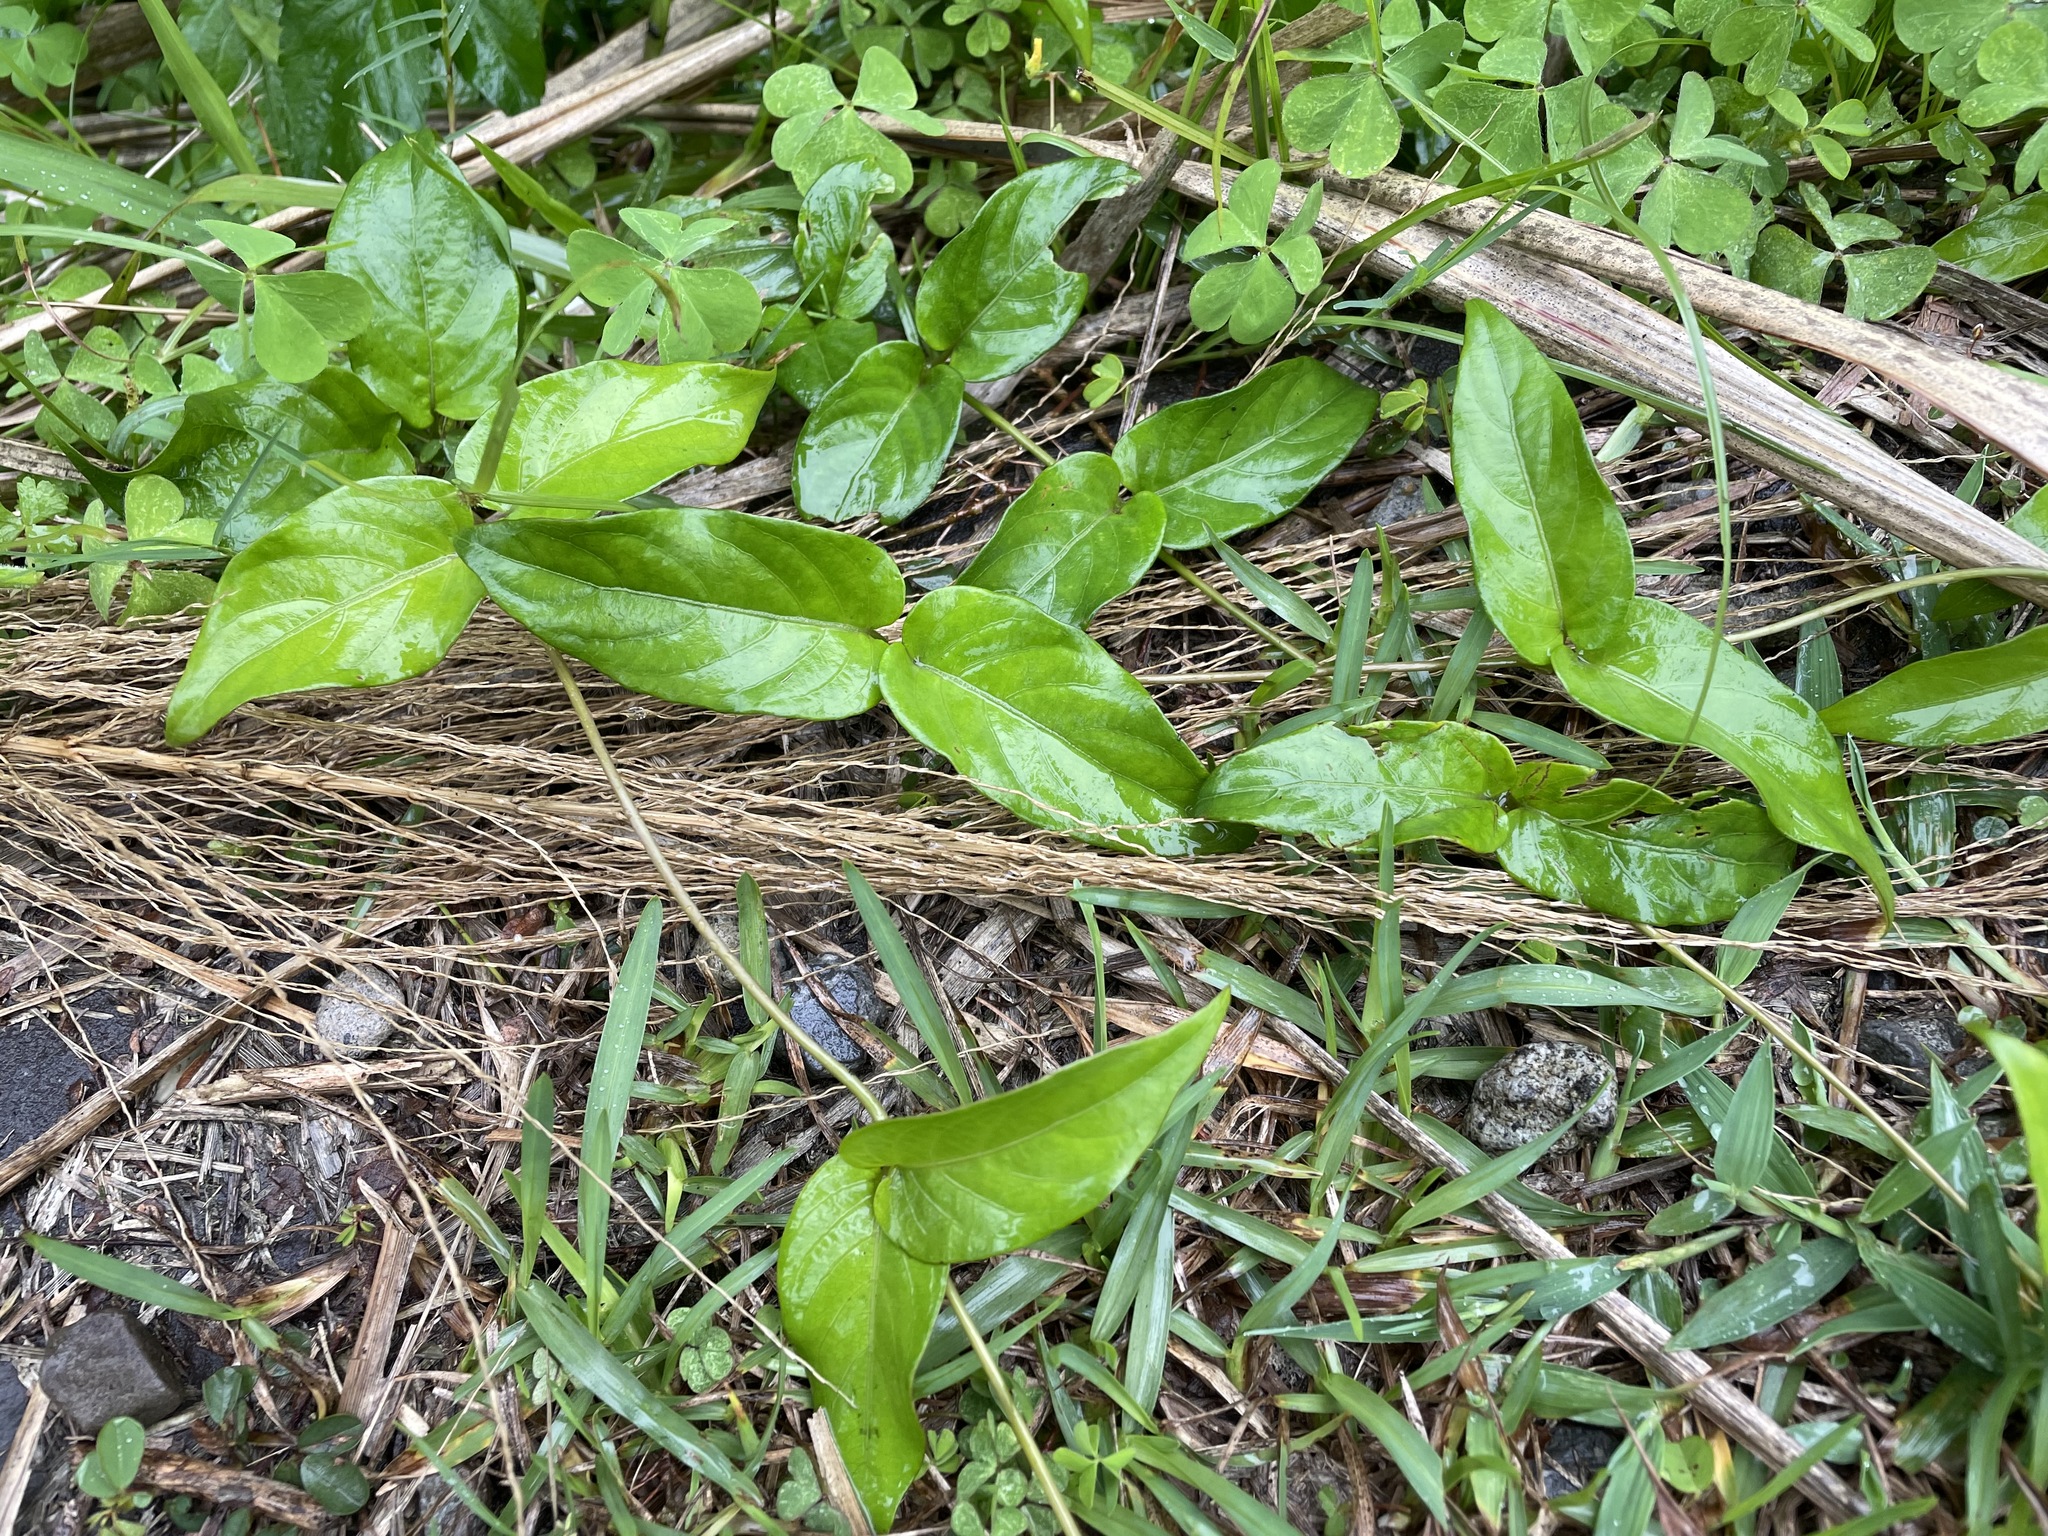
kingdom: Plantae
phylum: Tracheophyta
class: Magnoliopsida
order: Gentianales
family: Rubiaceae
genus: Paederia
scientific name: Paederia foetida
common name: Stinkvine
